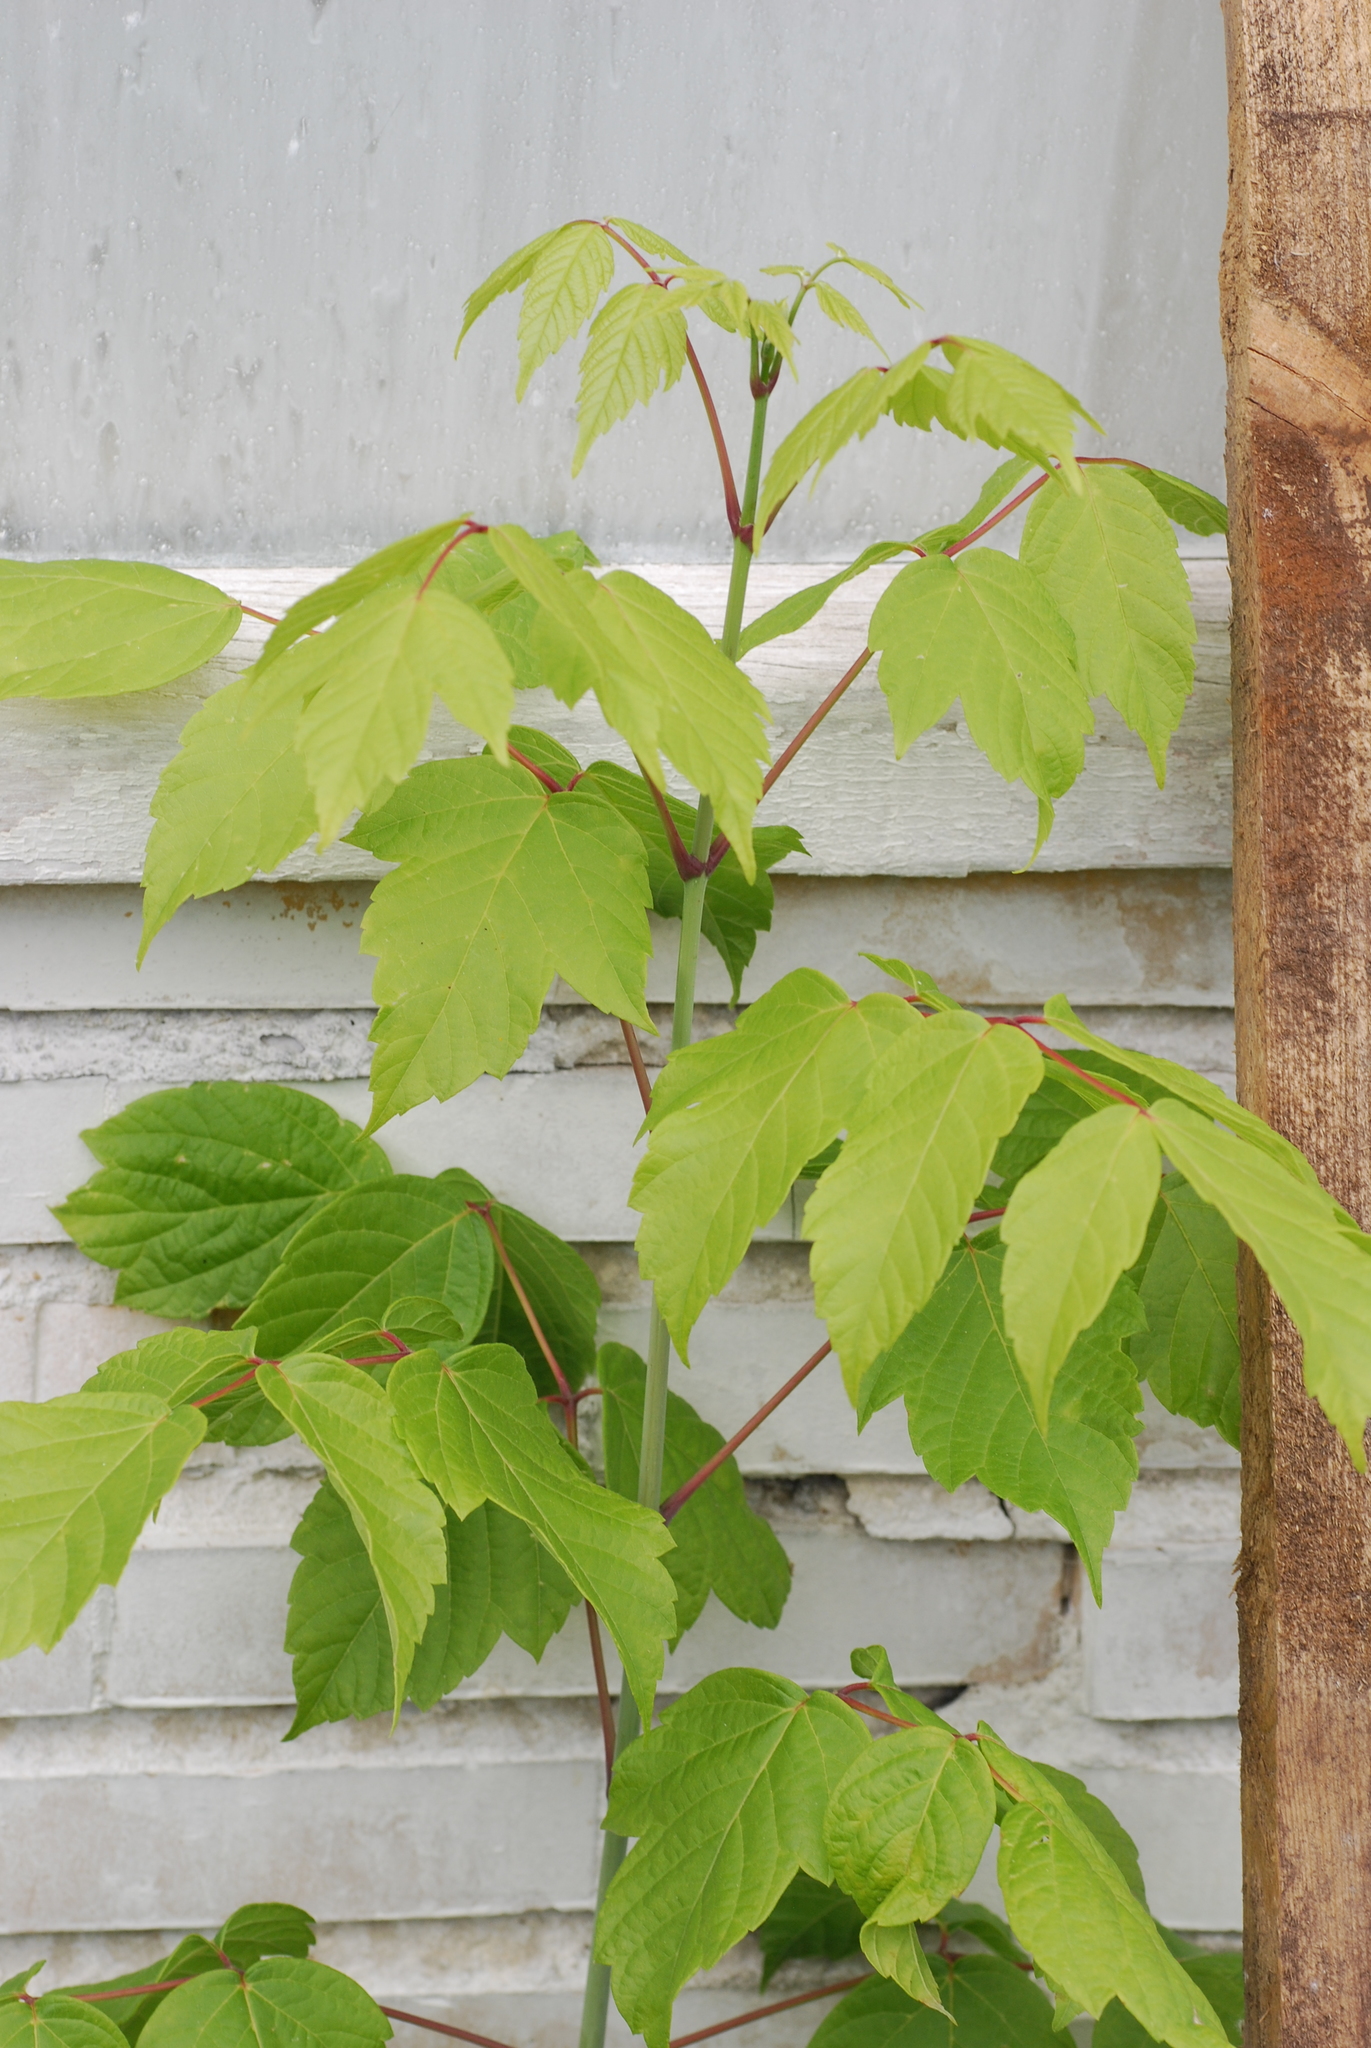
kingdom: Plantae
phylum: Tracheophyta
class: Magnoliopsida
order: Sapindales
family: Sapindaceae
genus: Acer
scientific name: Acer negundo
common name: Ashleaf maple
